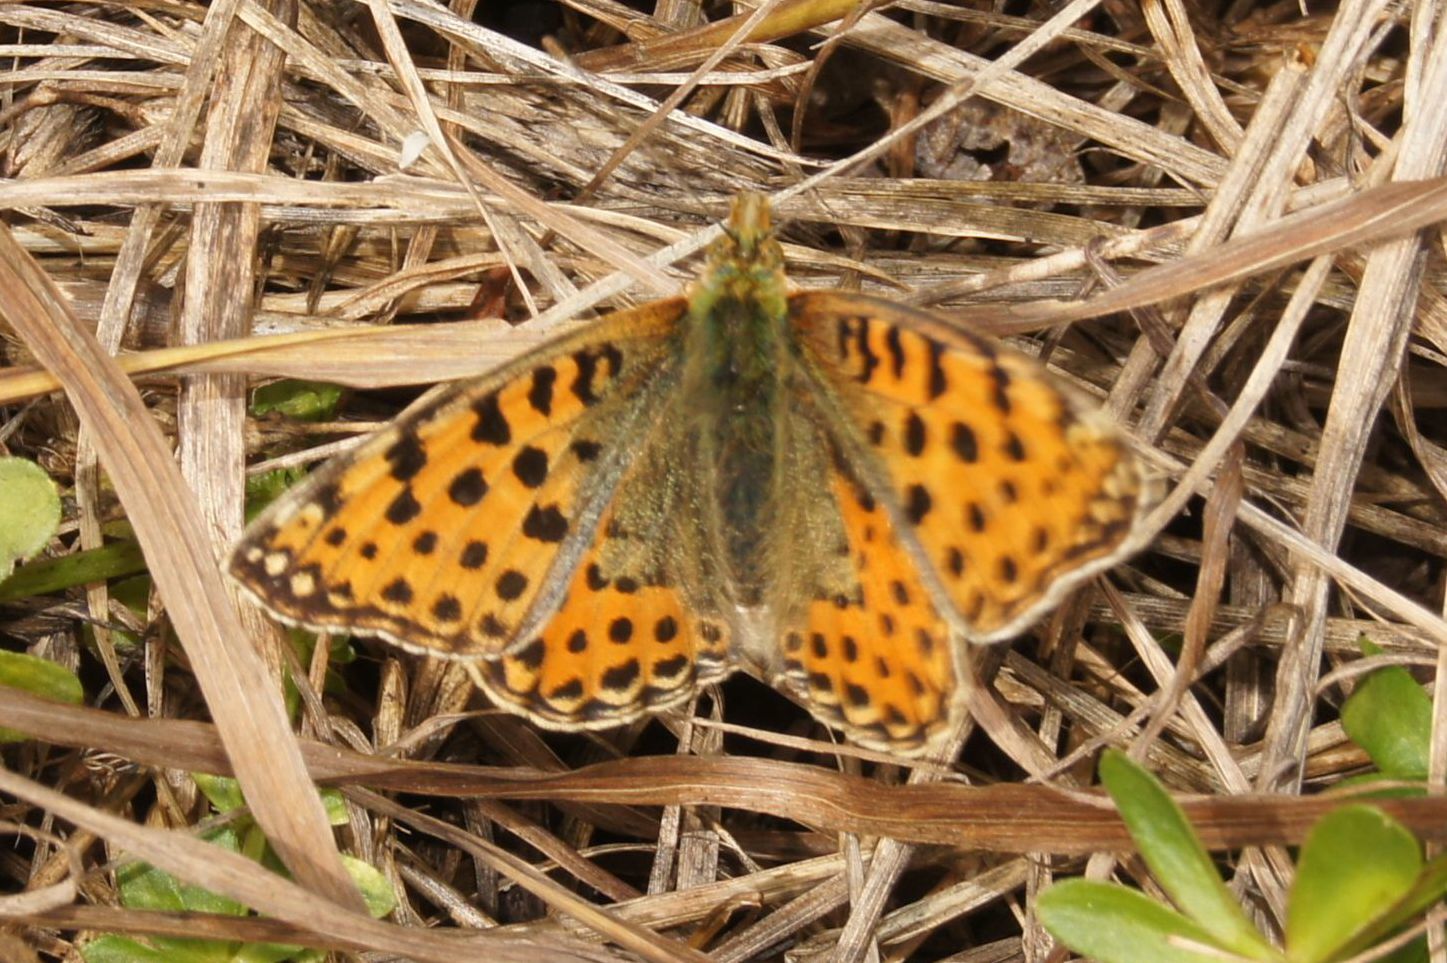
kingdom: Animalia
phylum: Arthropoda
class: Insecta
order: Lepidoptera
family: Nymphalidae
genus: Issoria
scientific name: Issoria lathonia
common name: Queen of spain fritillary
